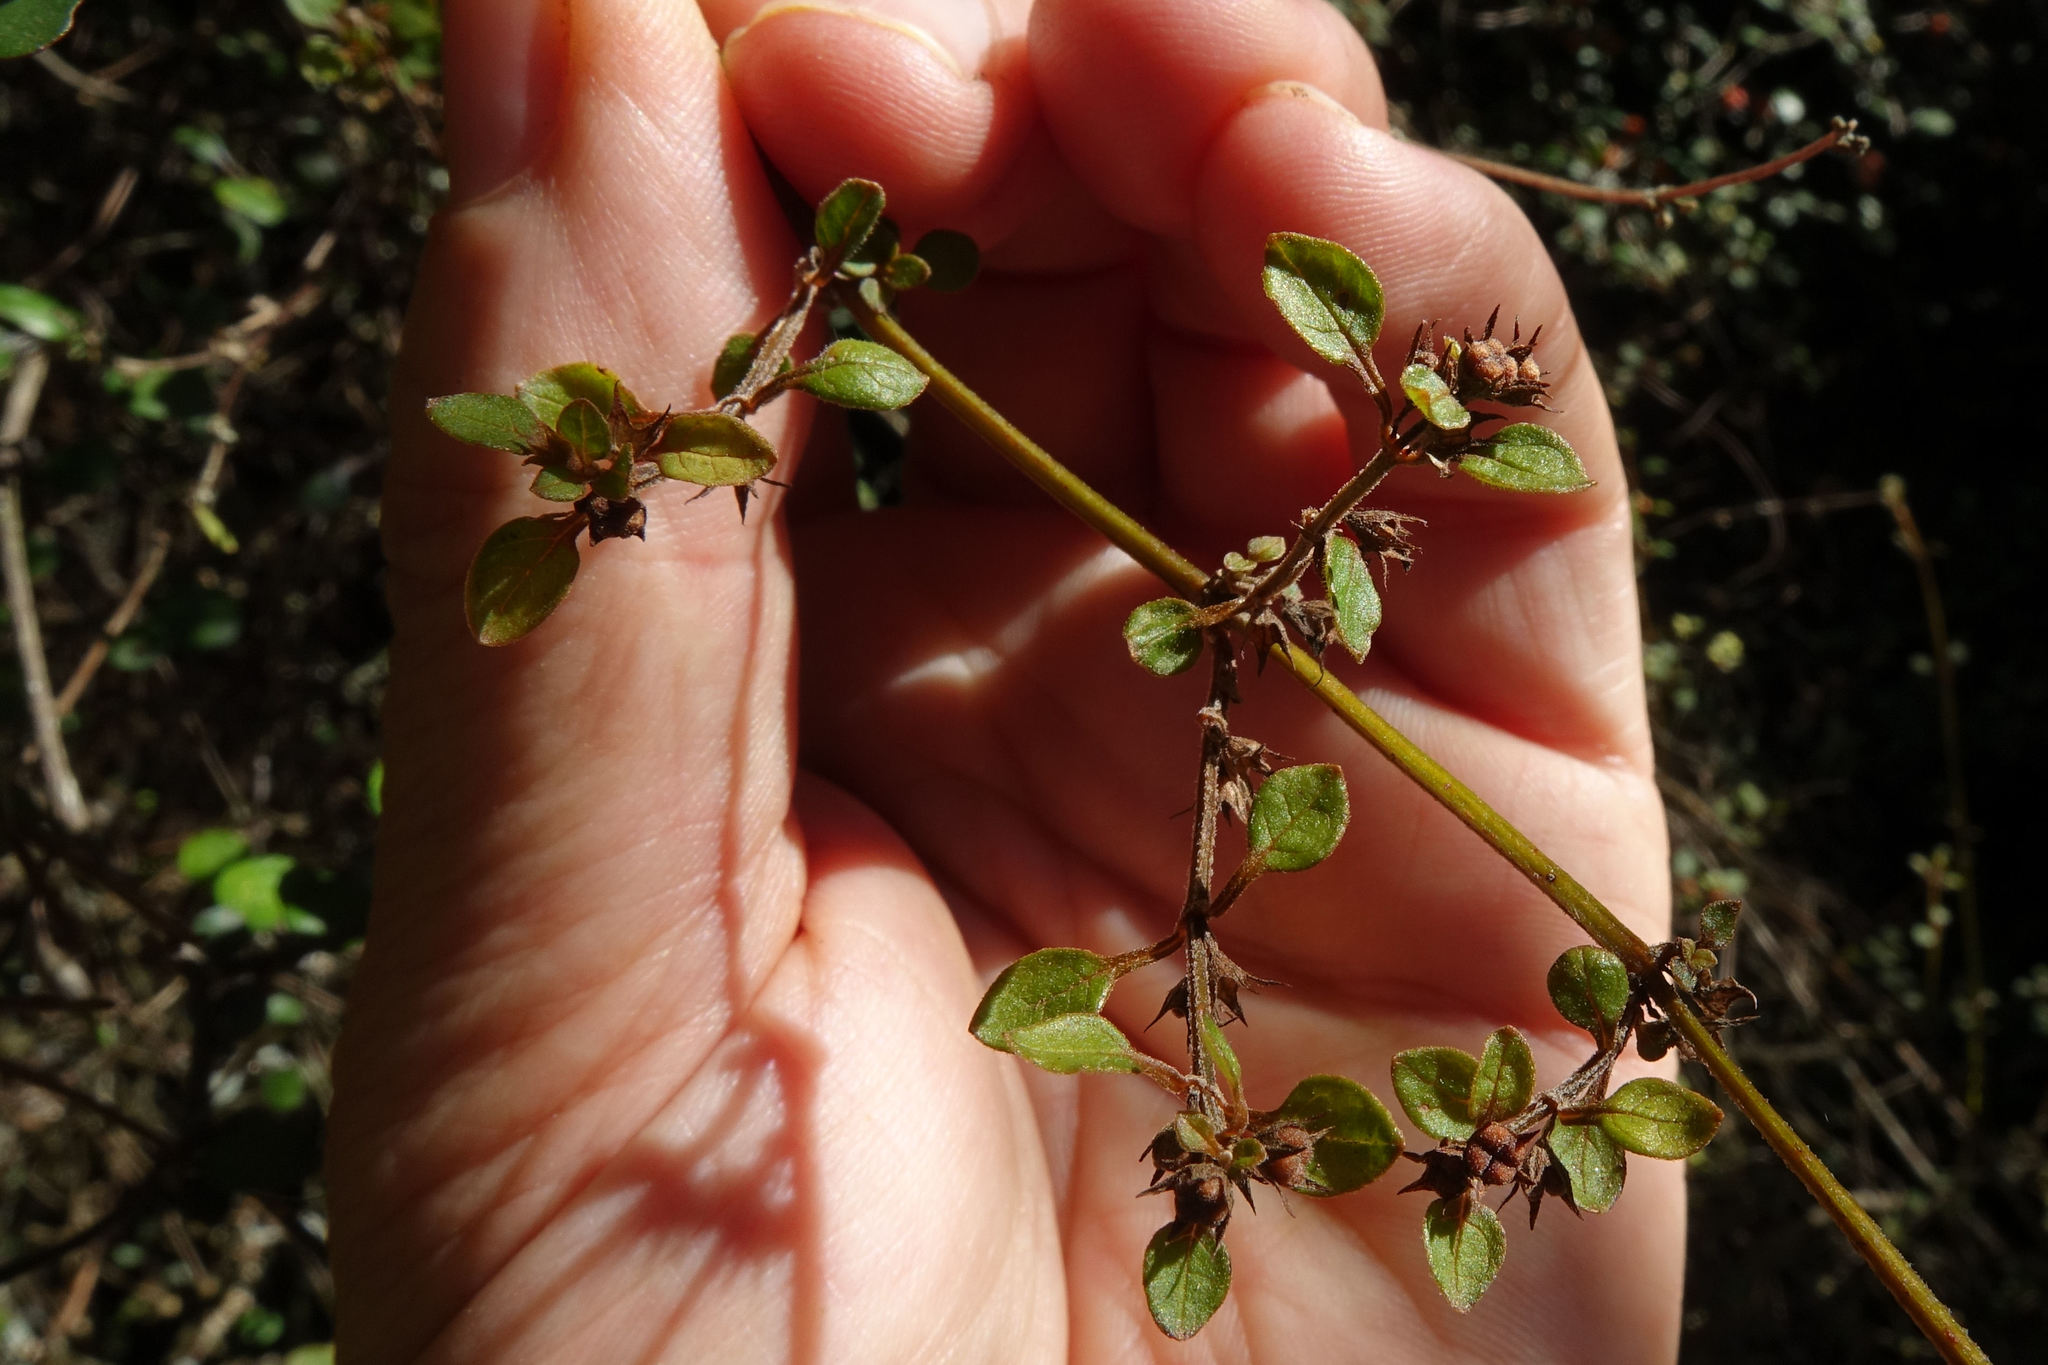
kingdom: Plantae
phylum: Tracheophyta
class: Magnoliopsida
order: Lamiales
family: Lamiaceae
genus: Teucrium
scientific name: Teucrium parvifolium
